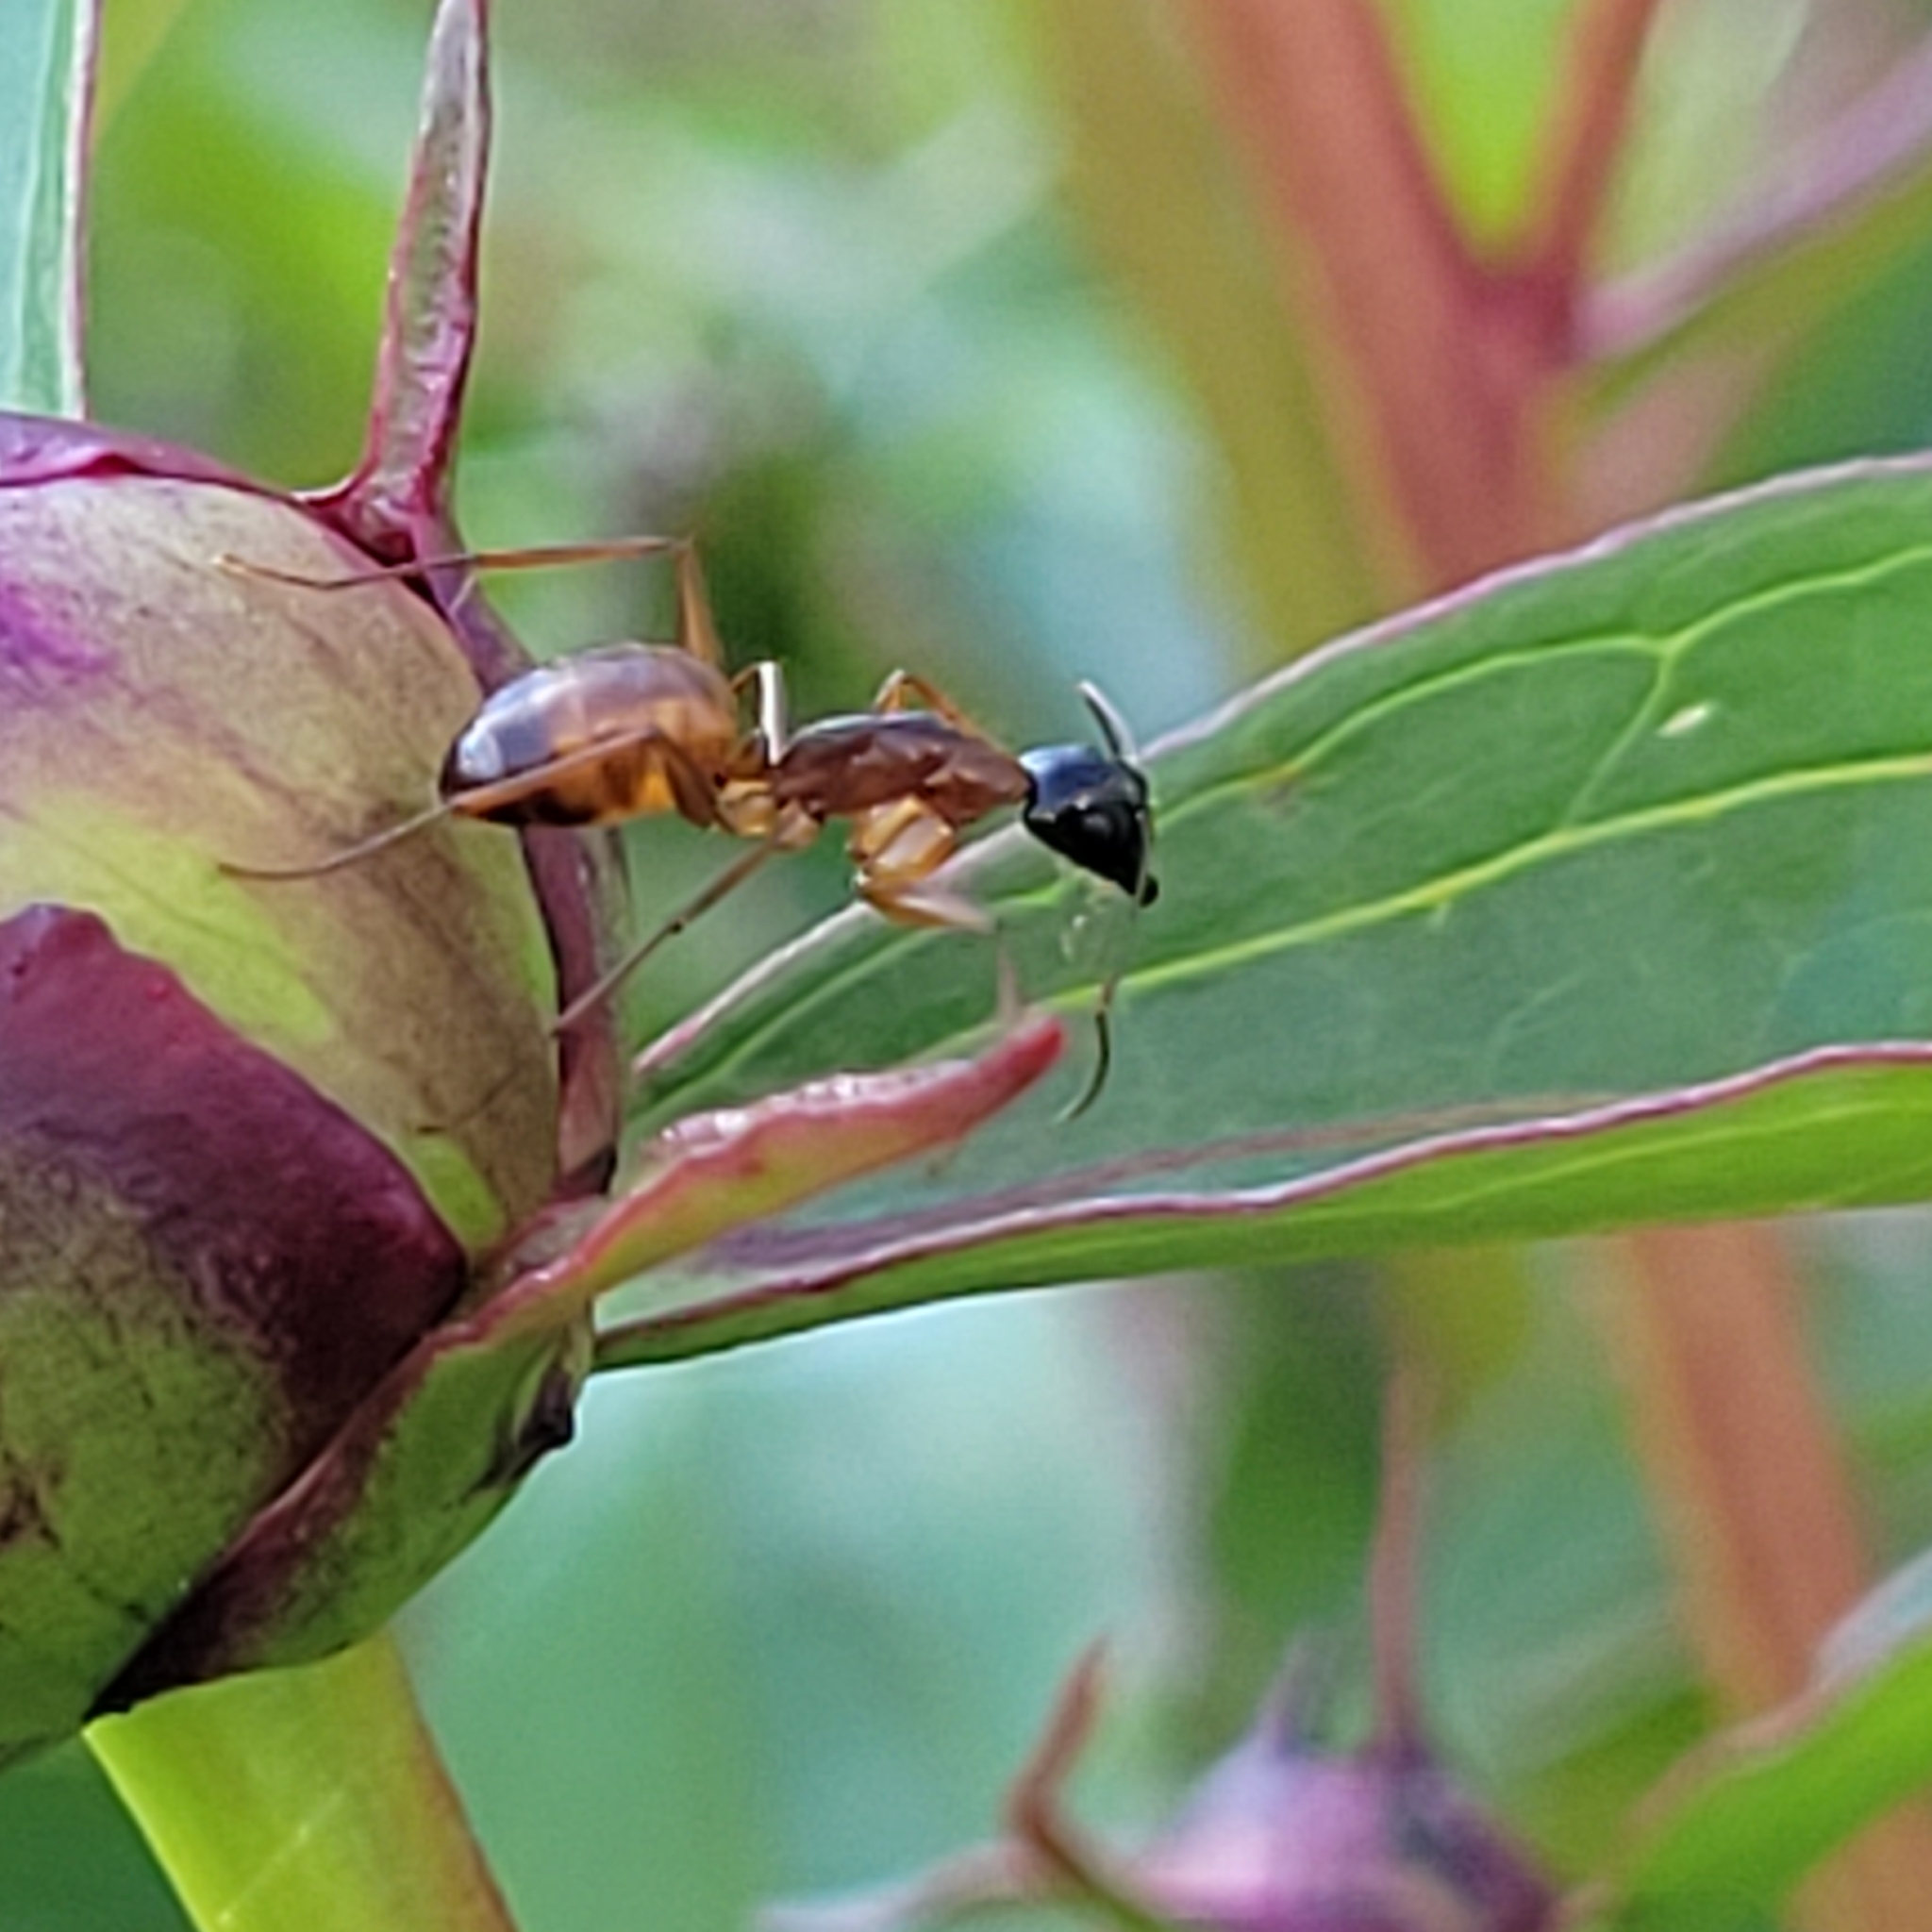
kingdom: Animalia
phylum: Arthropoda
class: Insecta
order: Hymenoptera
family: Formicidae
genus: Camponotus
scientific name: Camponotus americanus
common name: American carpenter ant
